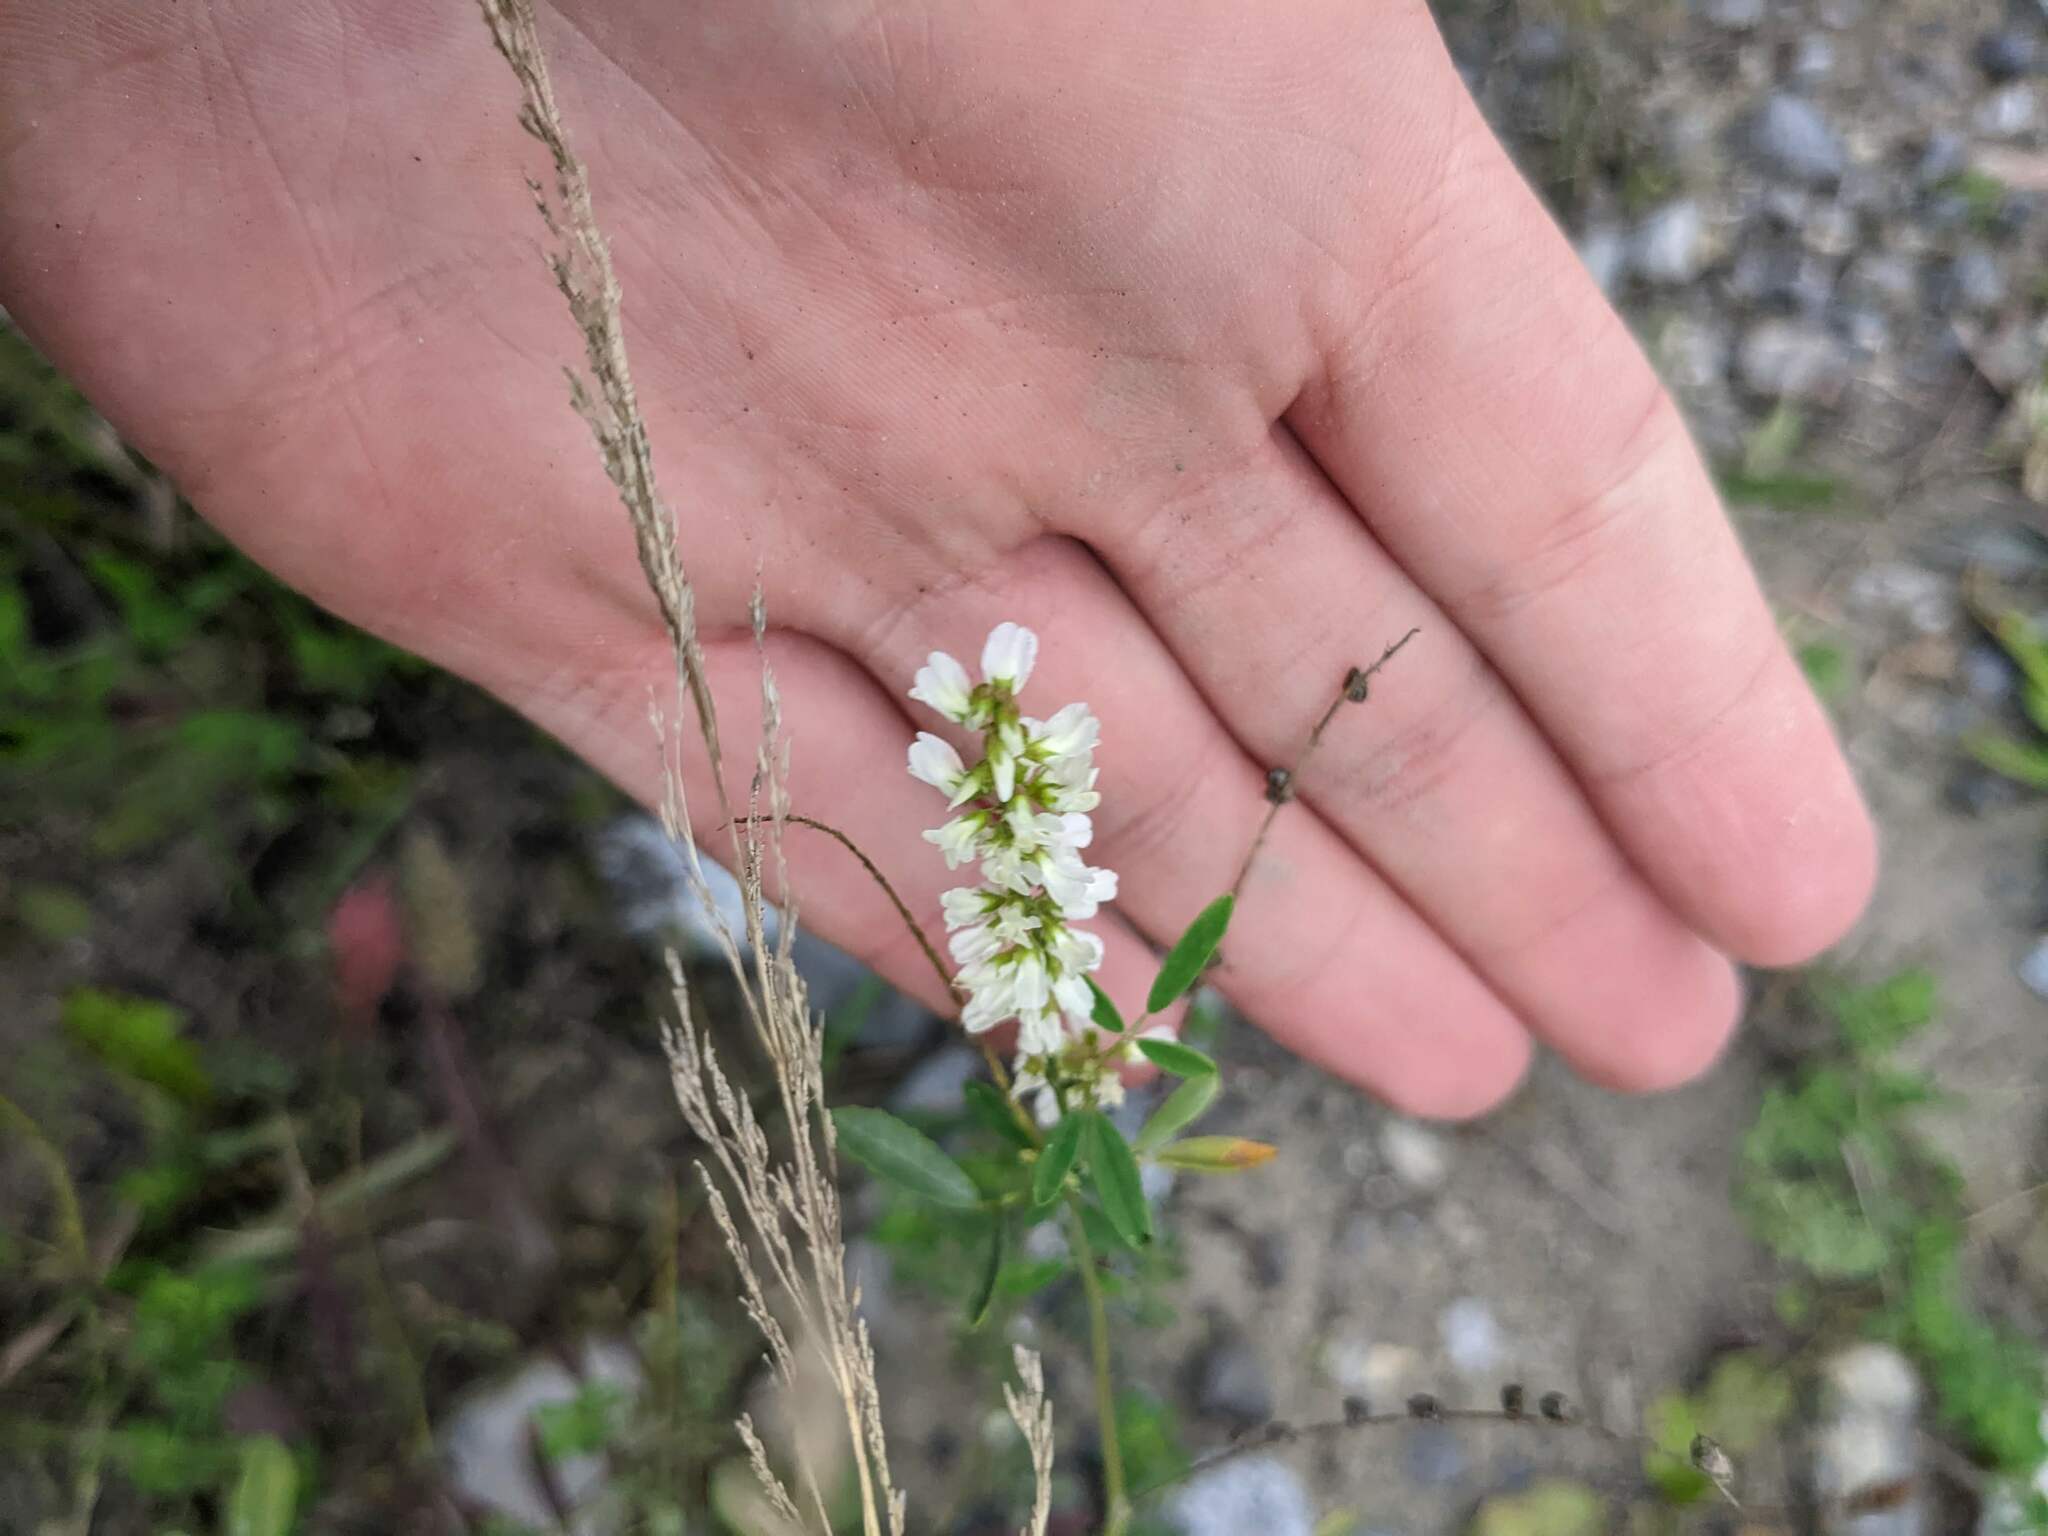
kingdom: Plantae
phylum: Tracheophyta
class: Magnoliopsida
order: Fabales
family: Fabaceae
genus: Melilotus
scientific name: Melilotus albus
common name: White melilot
